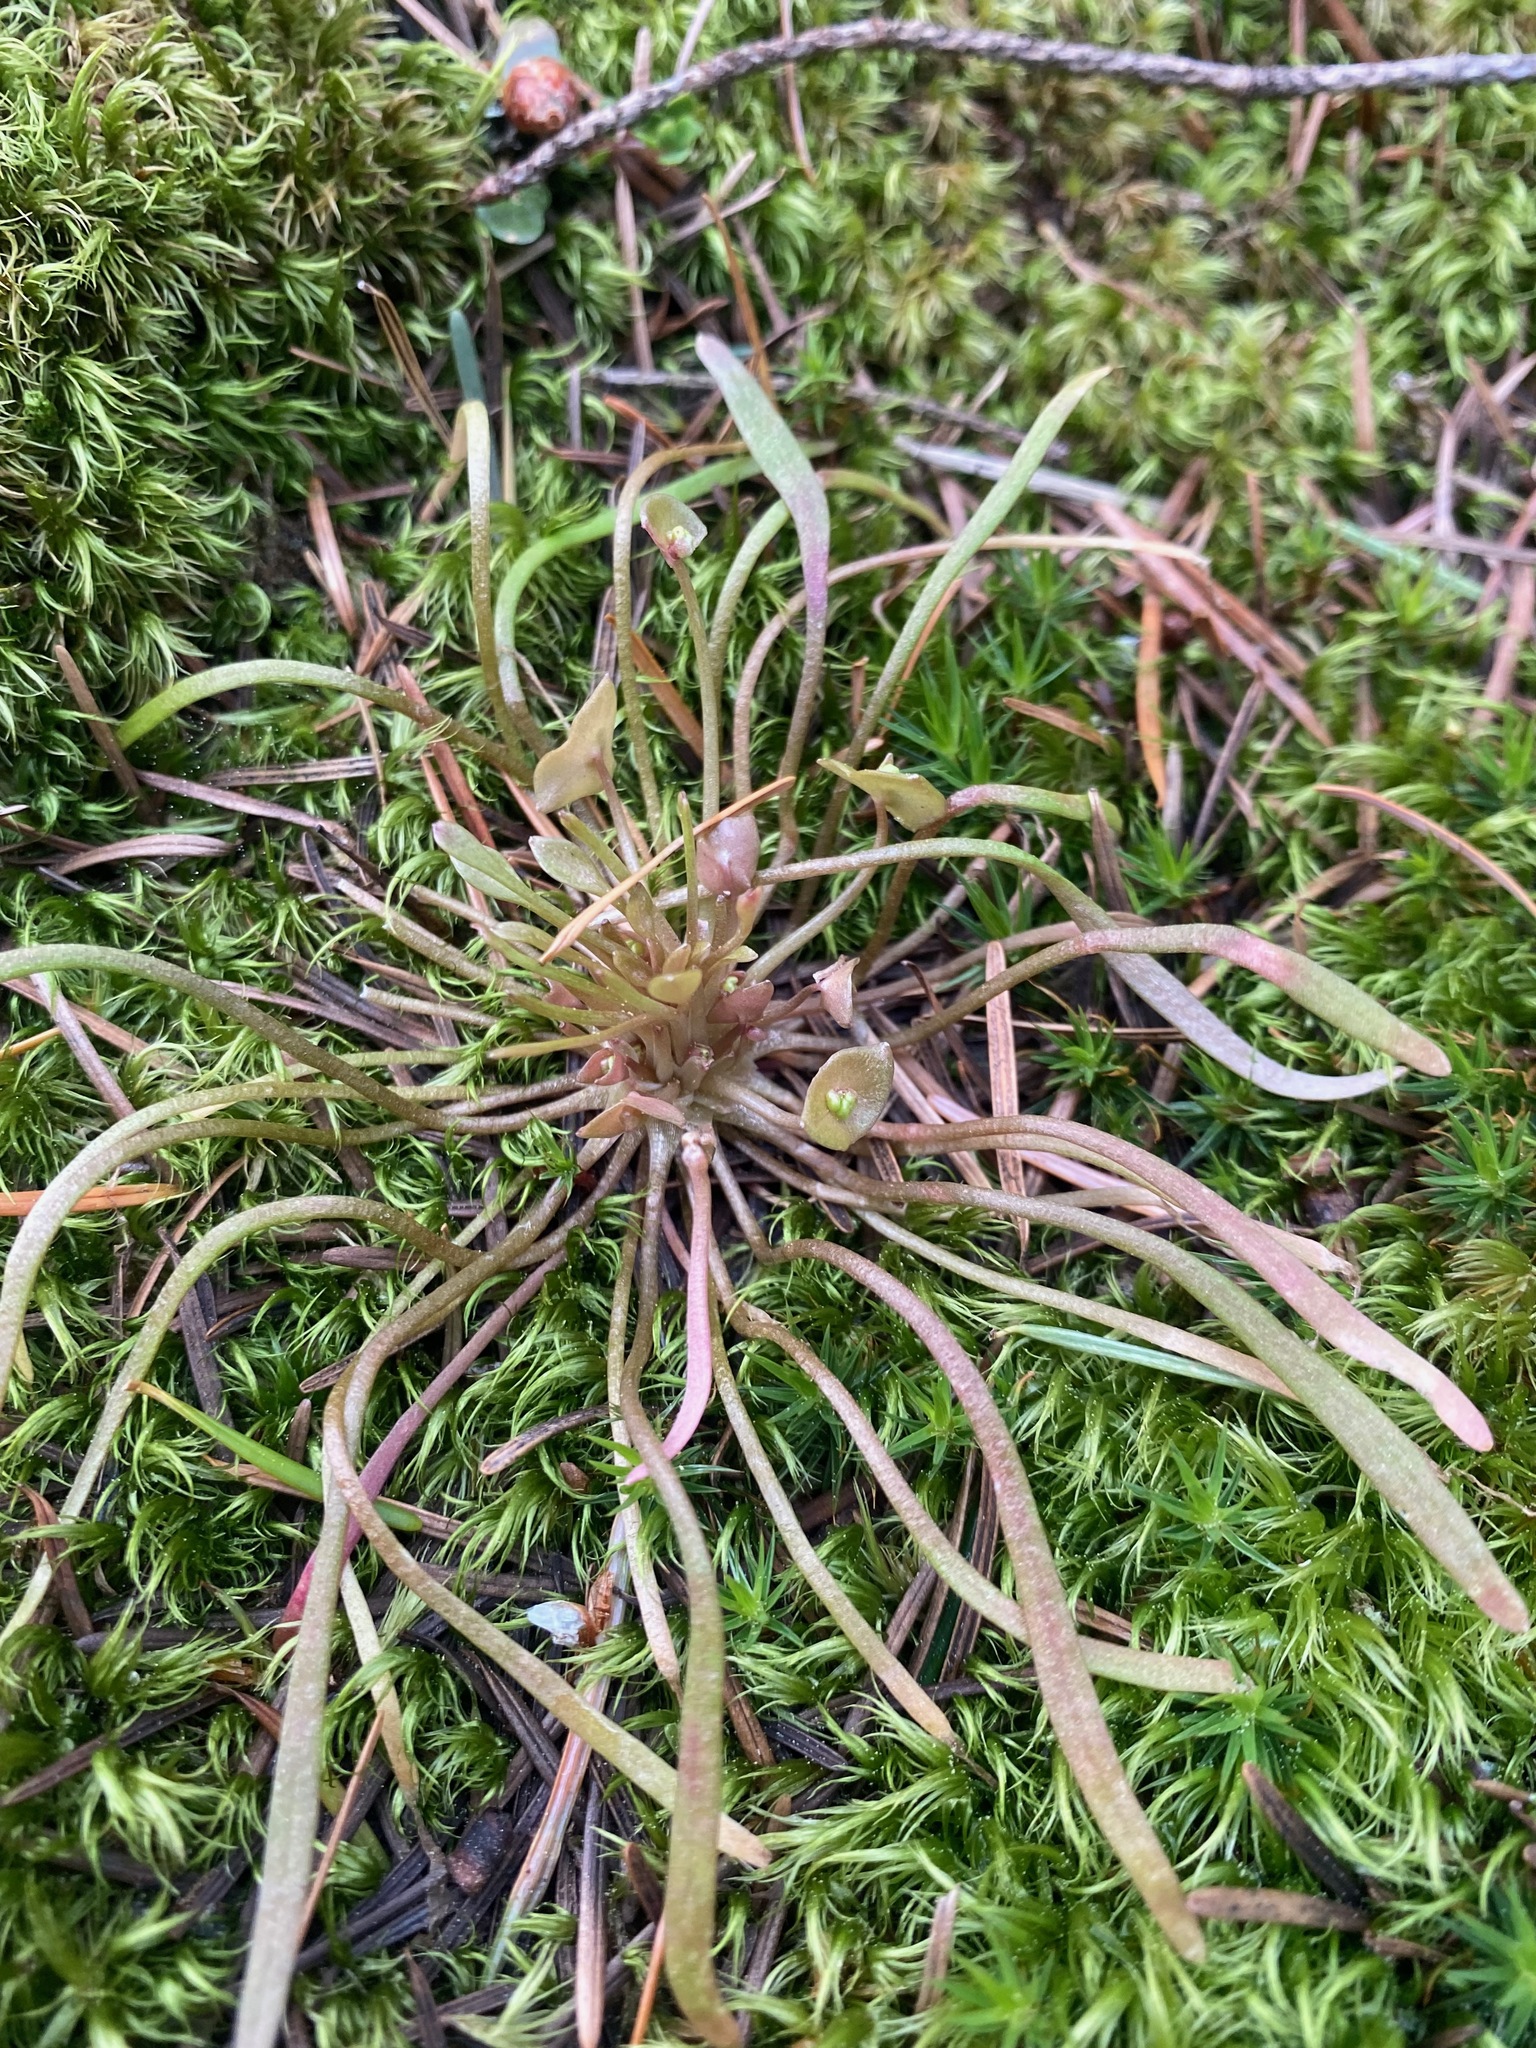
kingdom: Plantae
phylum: Tracheophyta
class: Magnoliopsida
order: Caryophyllales
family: Montiaceae
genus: Claytonia
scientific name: Claytonia parviflora
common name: Indian-lettuce
